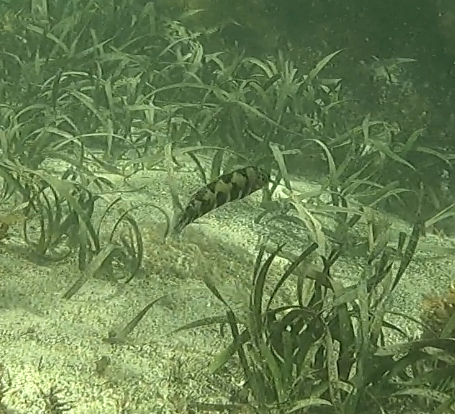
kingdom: Animalia
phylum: Chordata
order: Perciformes
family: Labridae
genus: Eupetrichthys
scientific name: Eupetrichthys angustipes
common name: Snake-skin wrasse
